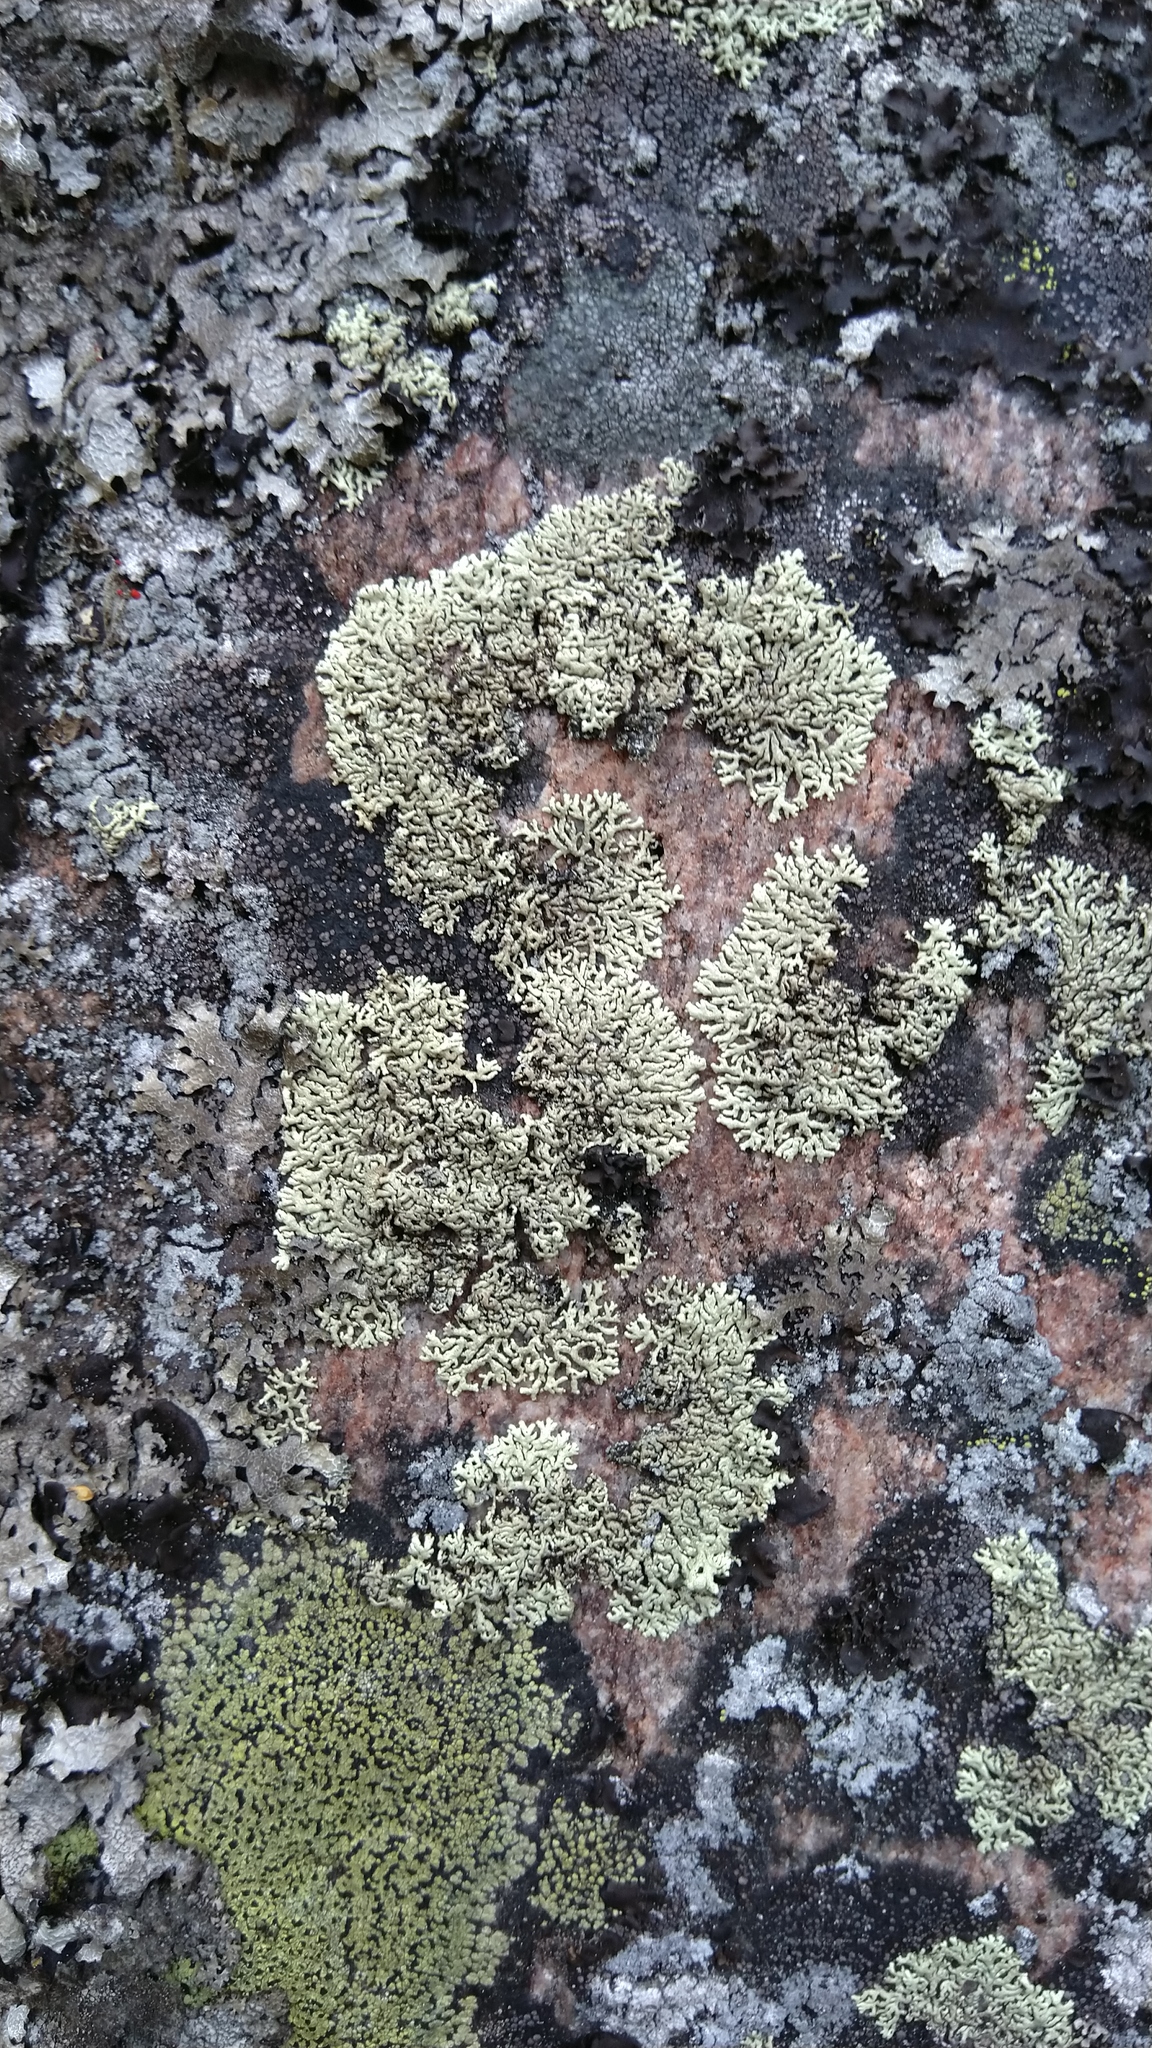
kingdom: Fungi
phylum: Ascomycota
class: Lecanoromycetes
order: Lecanorales
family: Parmeliaceae
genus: Arctoparmelia
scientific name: Arctoparmelia centrifuga
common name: Concentric ring lichen
